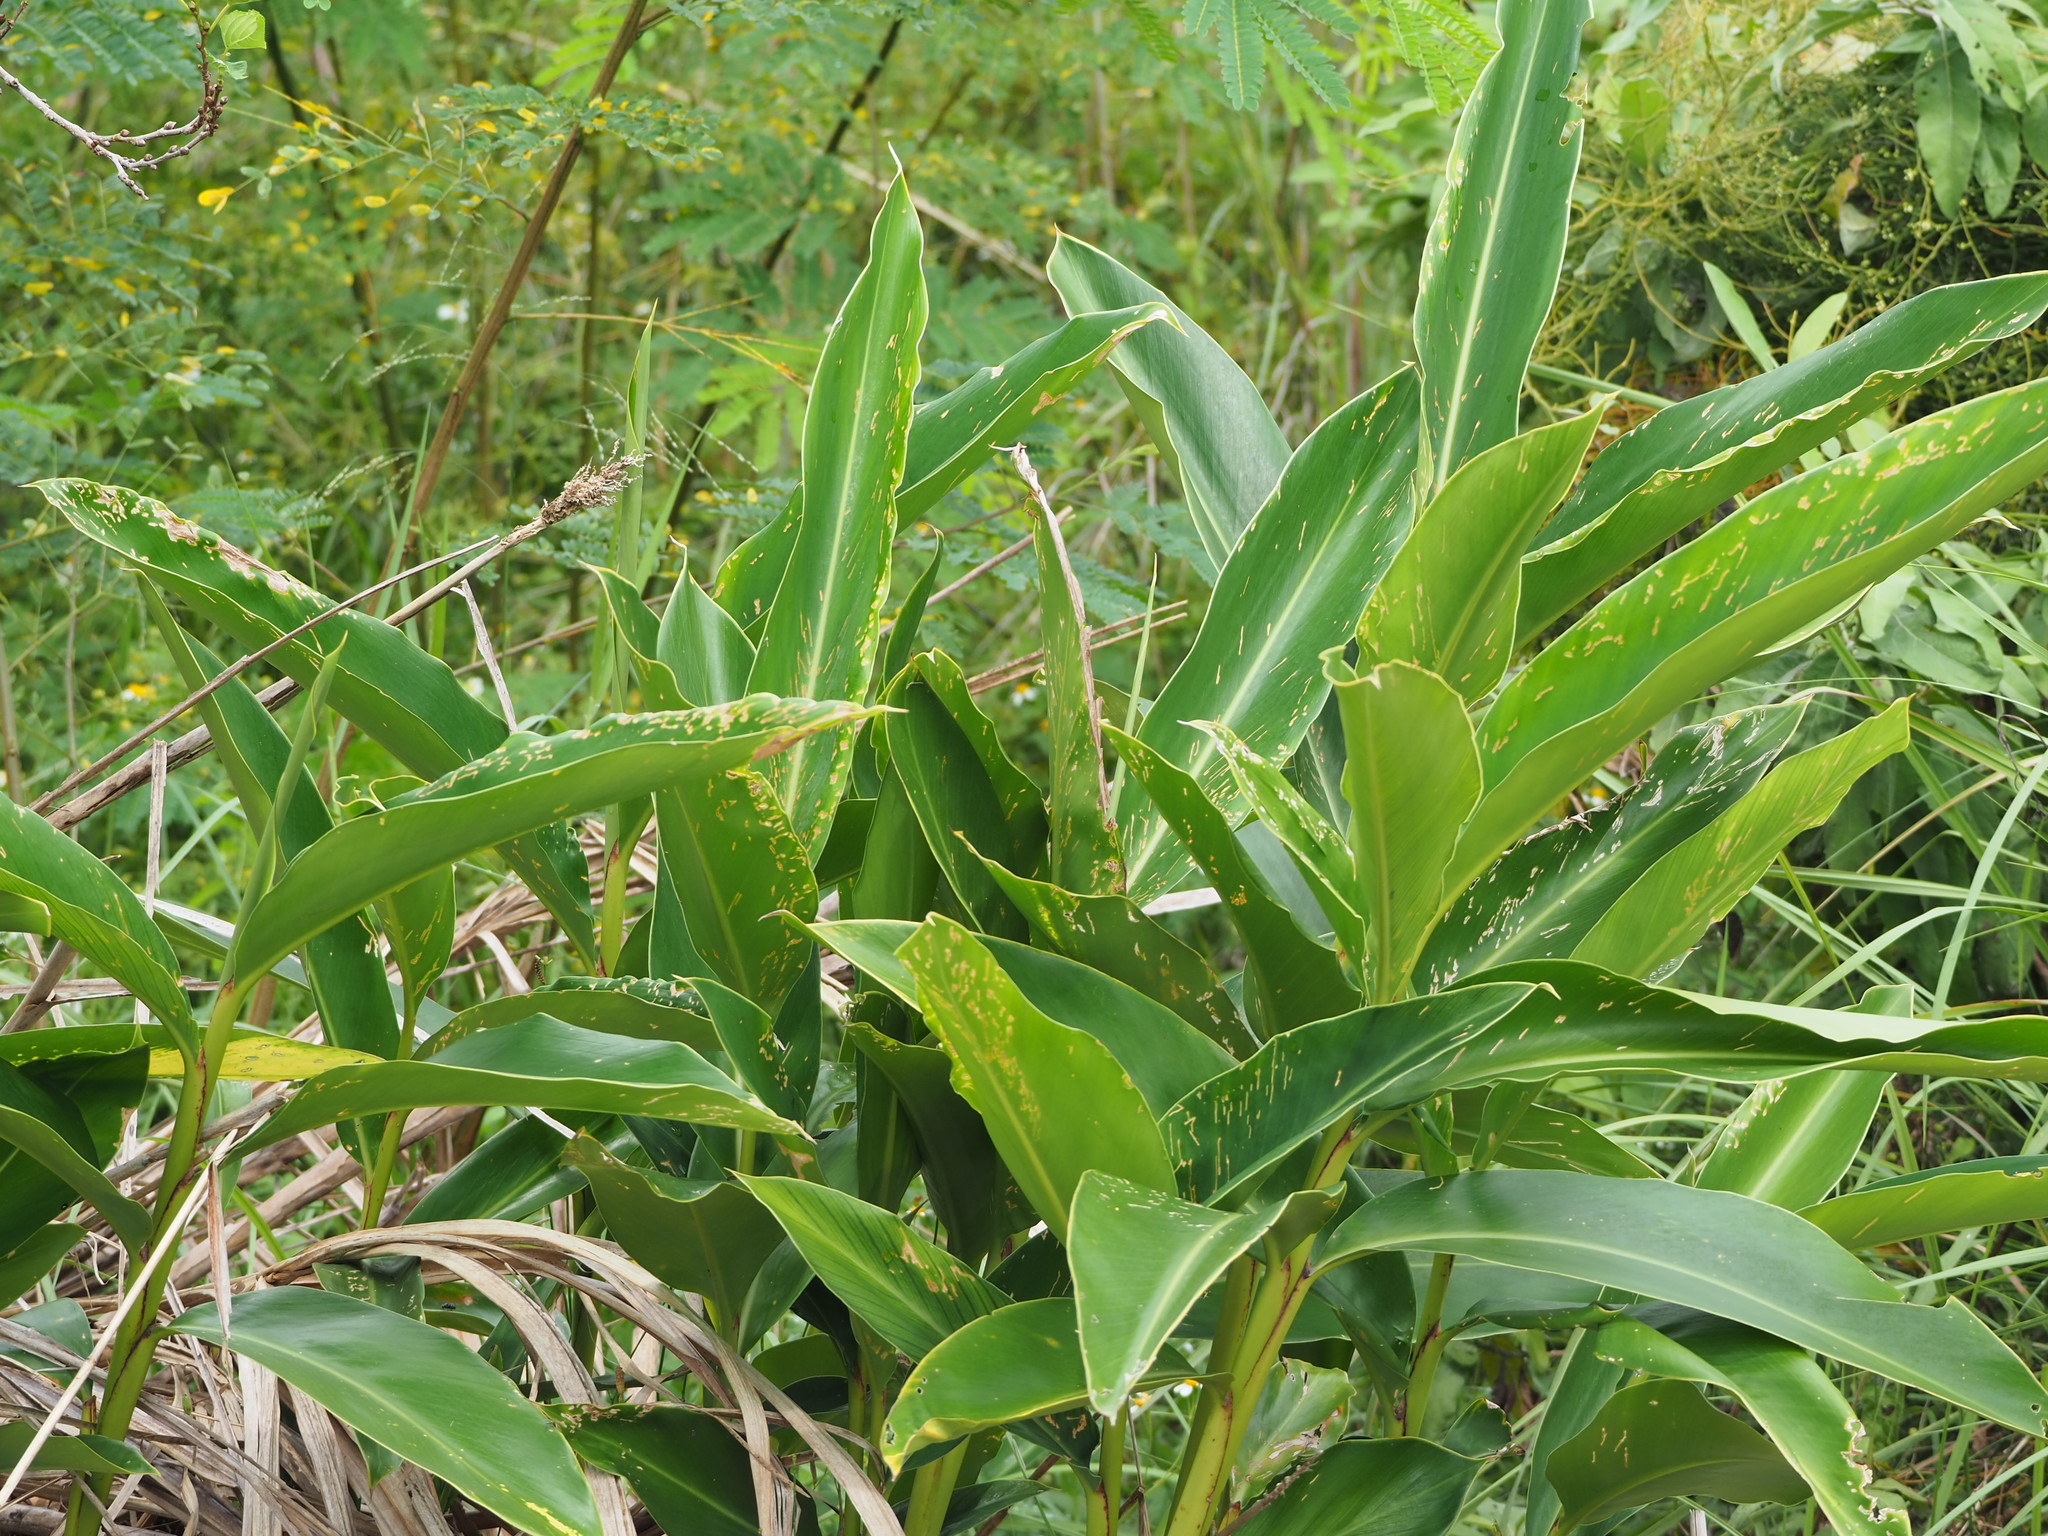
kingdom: Plantae
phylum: Tracheophyta
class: Liliopsida
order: Zingiberales
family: Zingiberaceae
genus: Alpinia
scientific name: Alpinia zerumbet
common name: Shellplant
